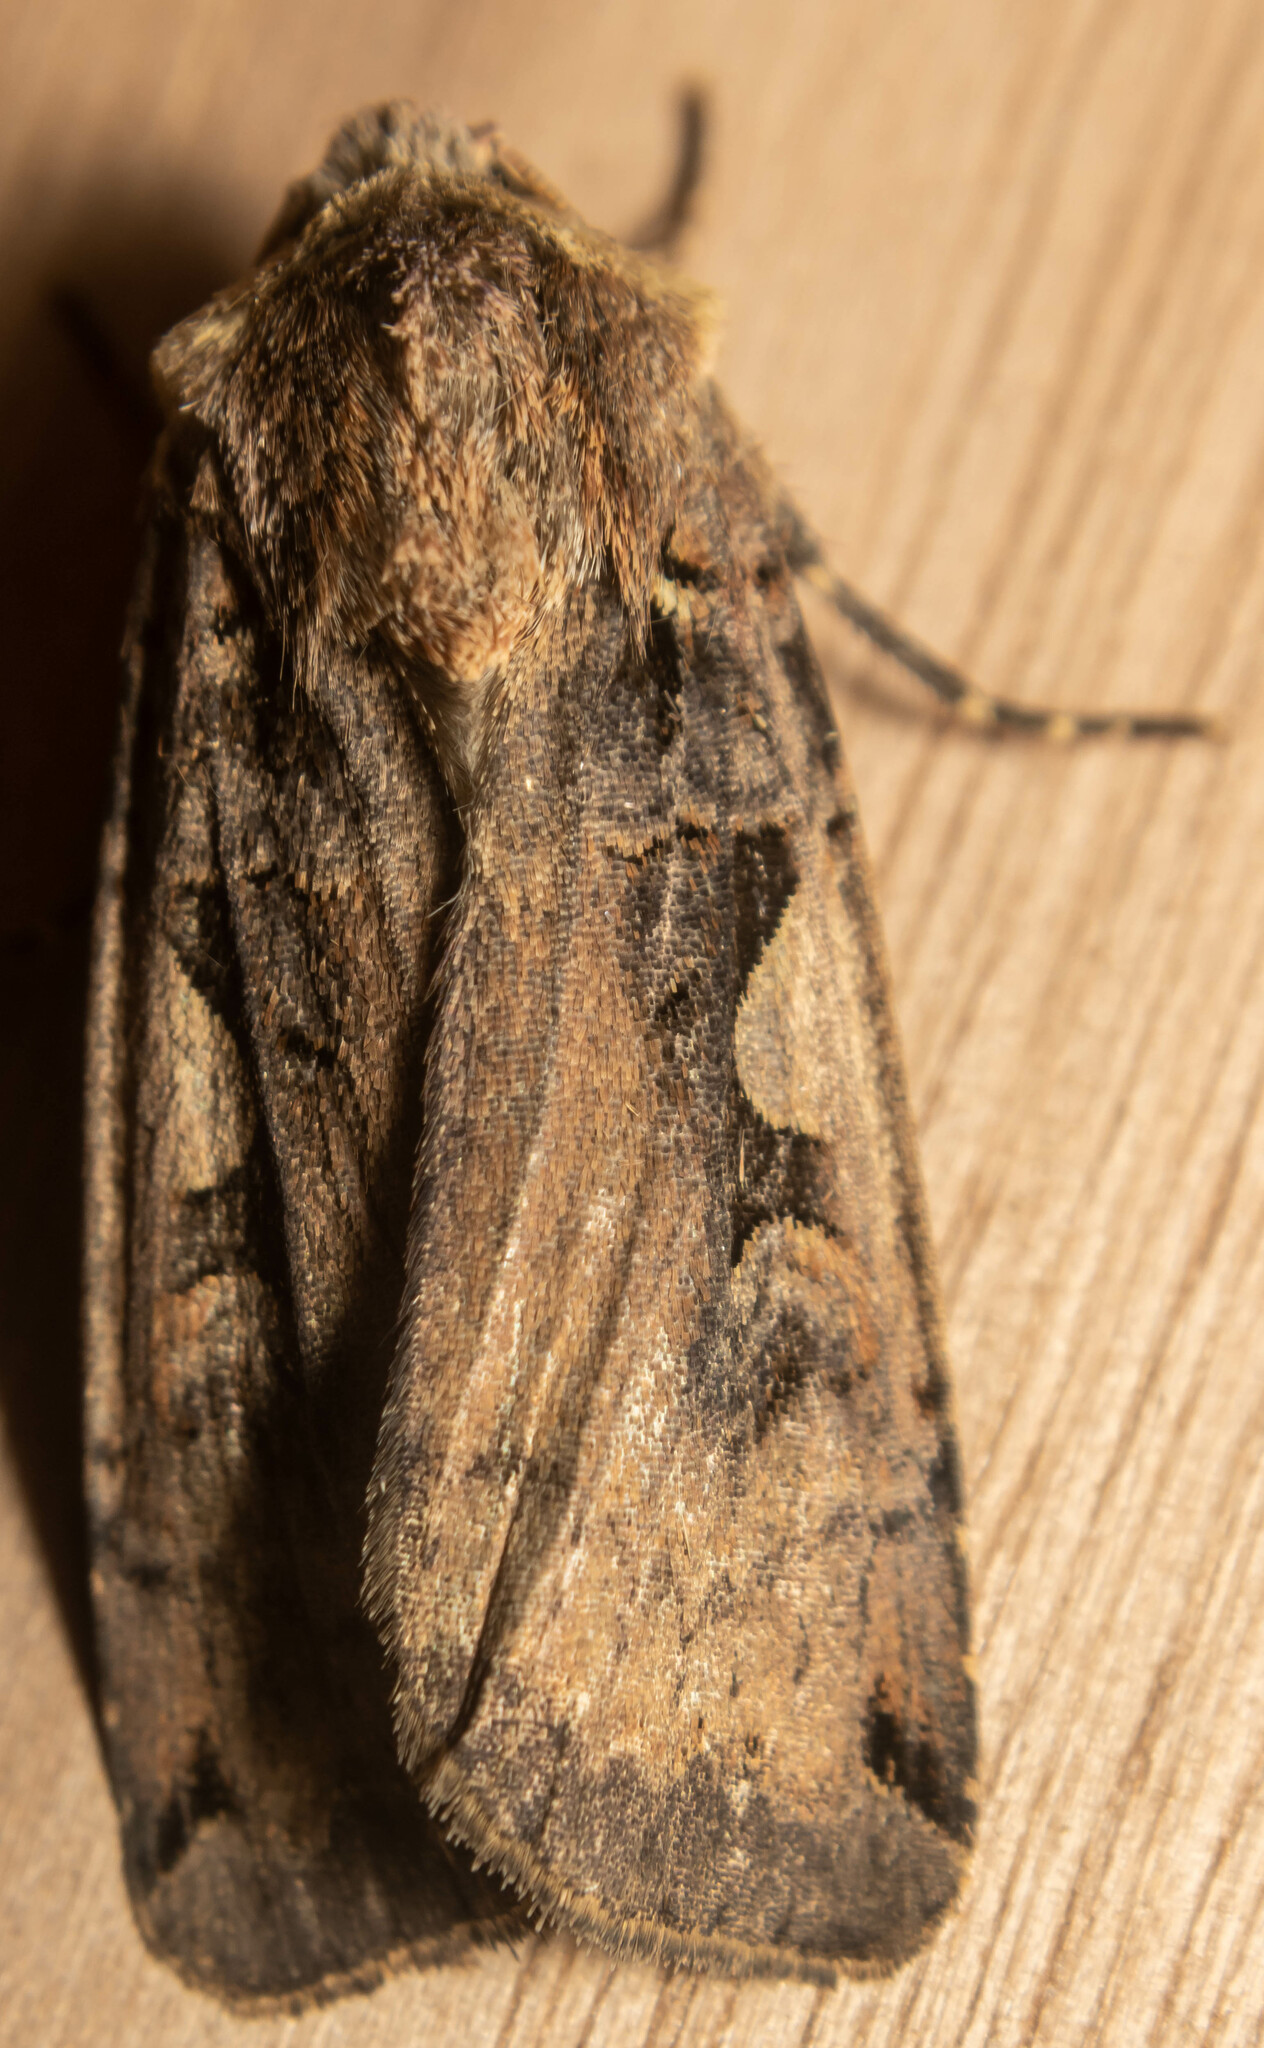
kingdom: Animalia
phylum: Arthropoda
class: Insecta
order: Lepidoptera
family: Noctuidae
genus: Xestia
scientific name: Xestia c-nigrum
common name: Setaceous hebrew character
